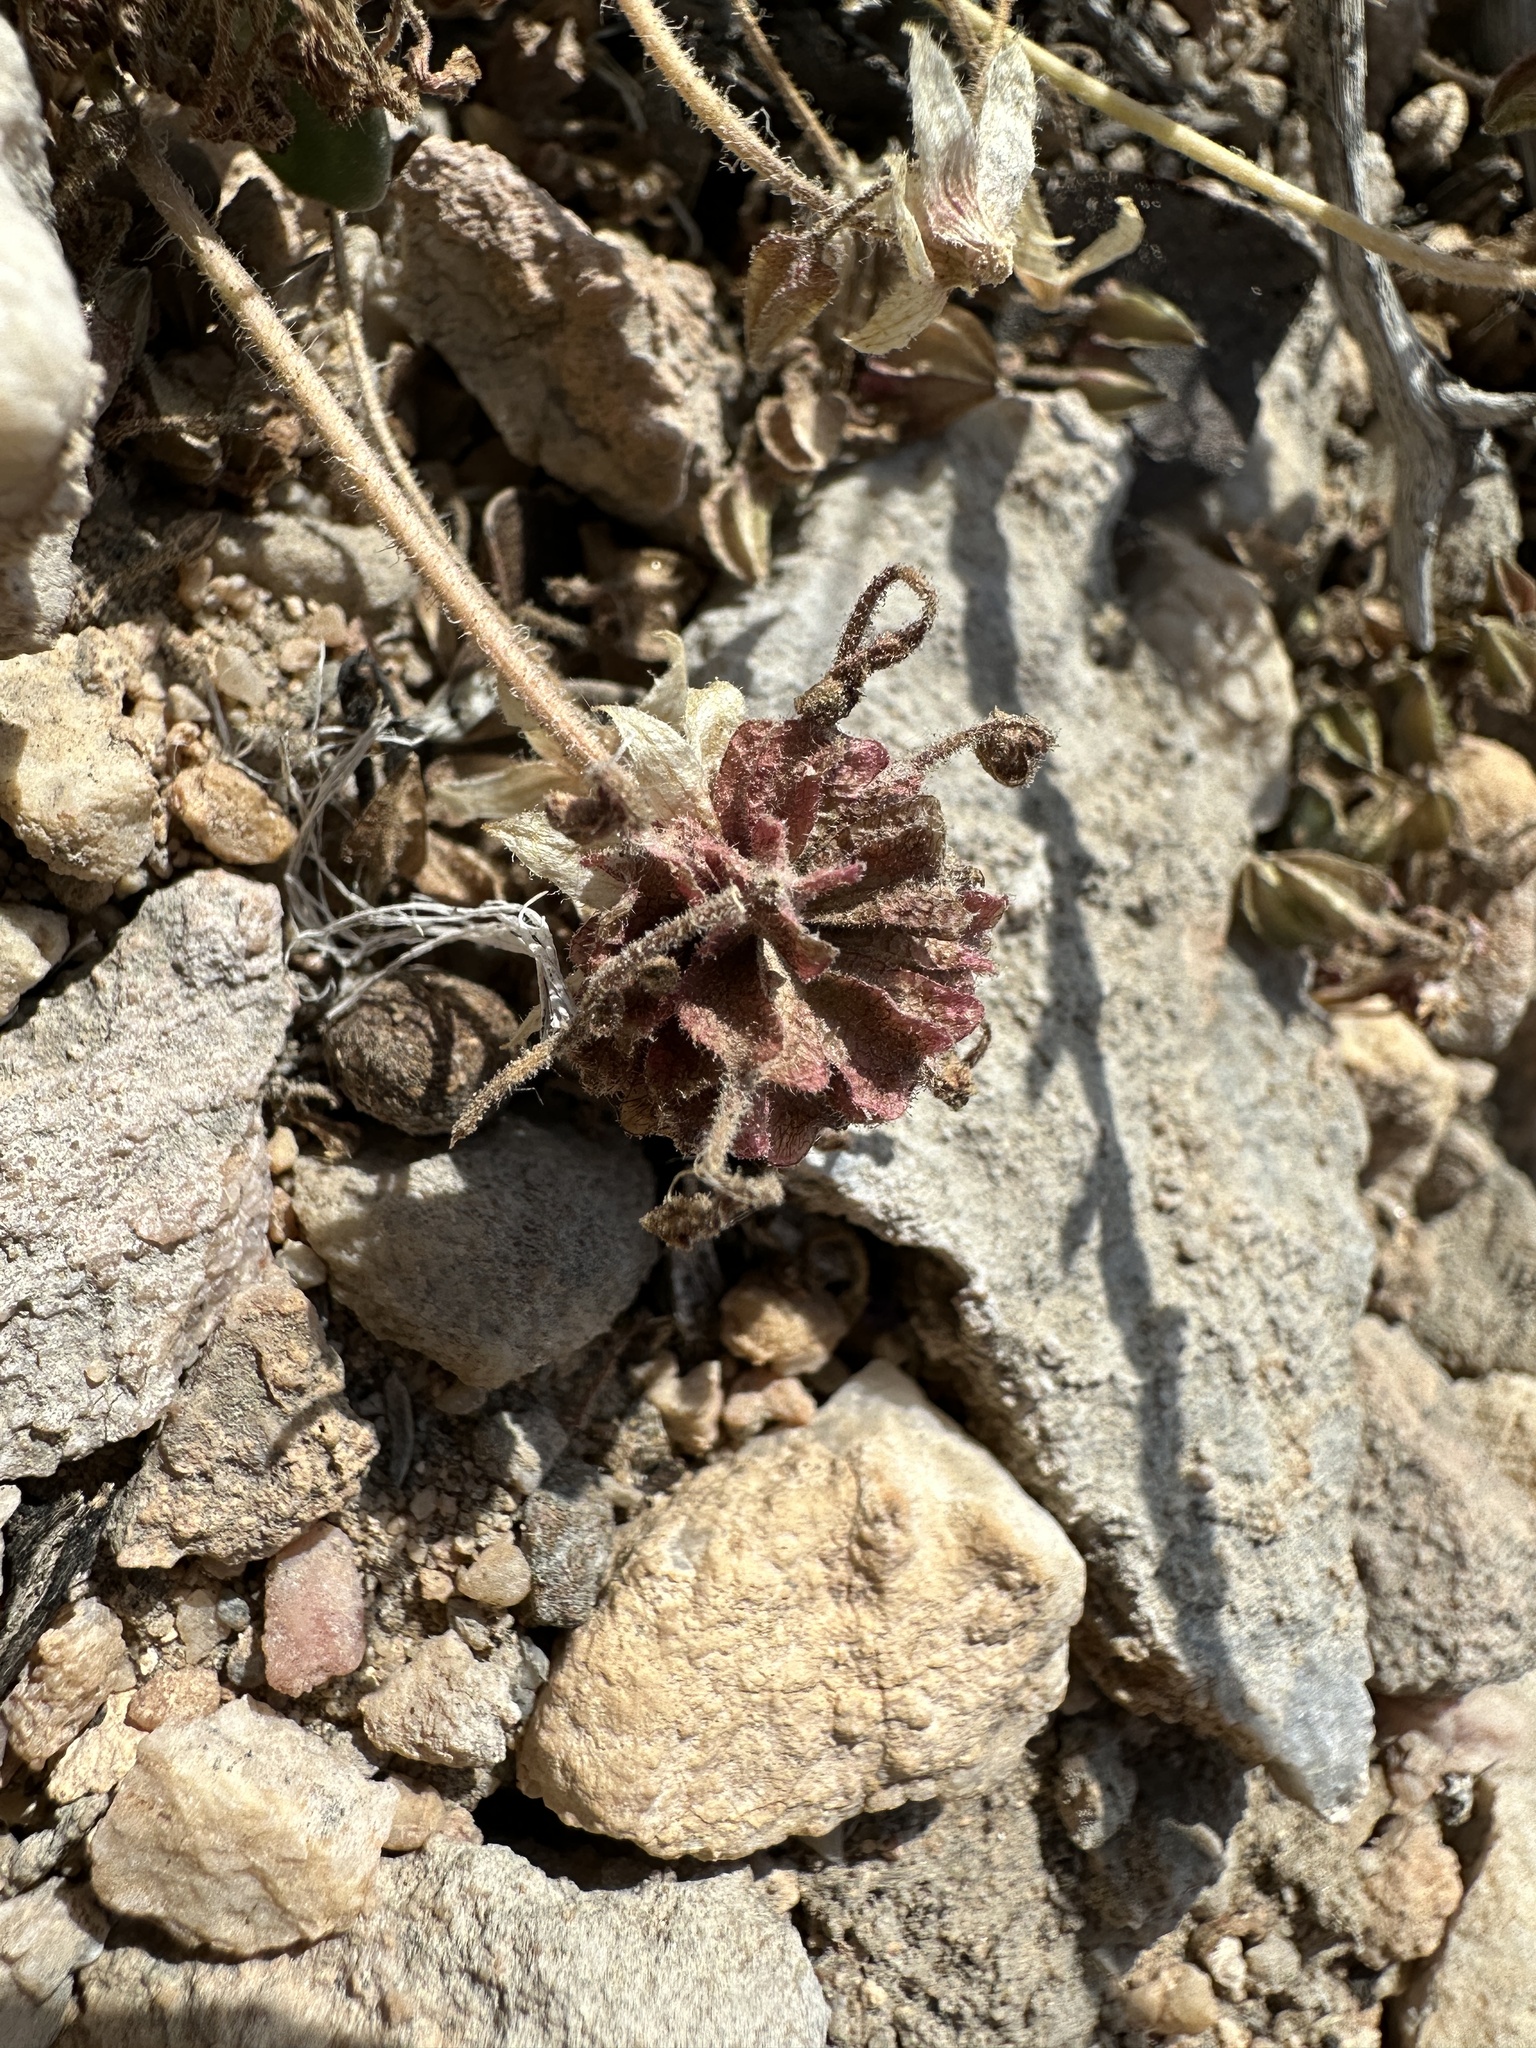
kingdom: Plantae
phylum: Tracheophyta
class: Magnoliopsida
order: Caryophyllales
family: Nyctaginaceae
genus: Abronia
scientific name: Abronia nana
